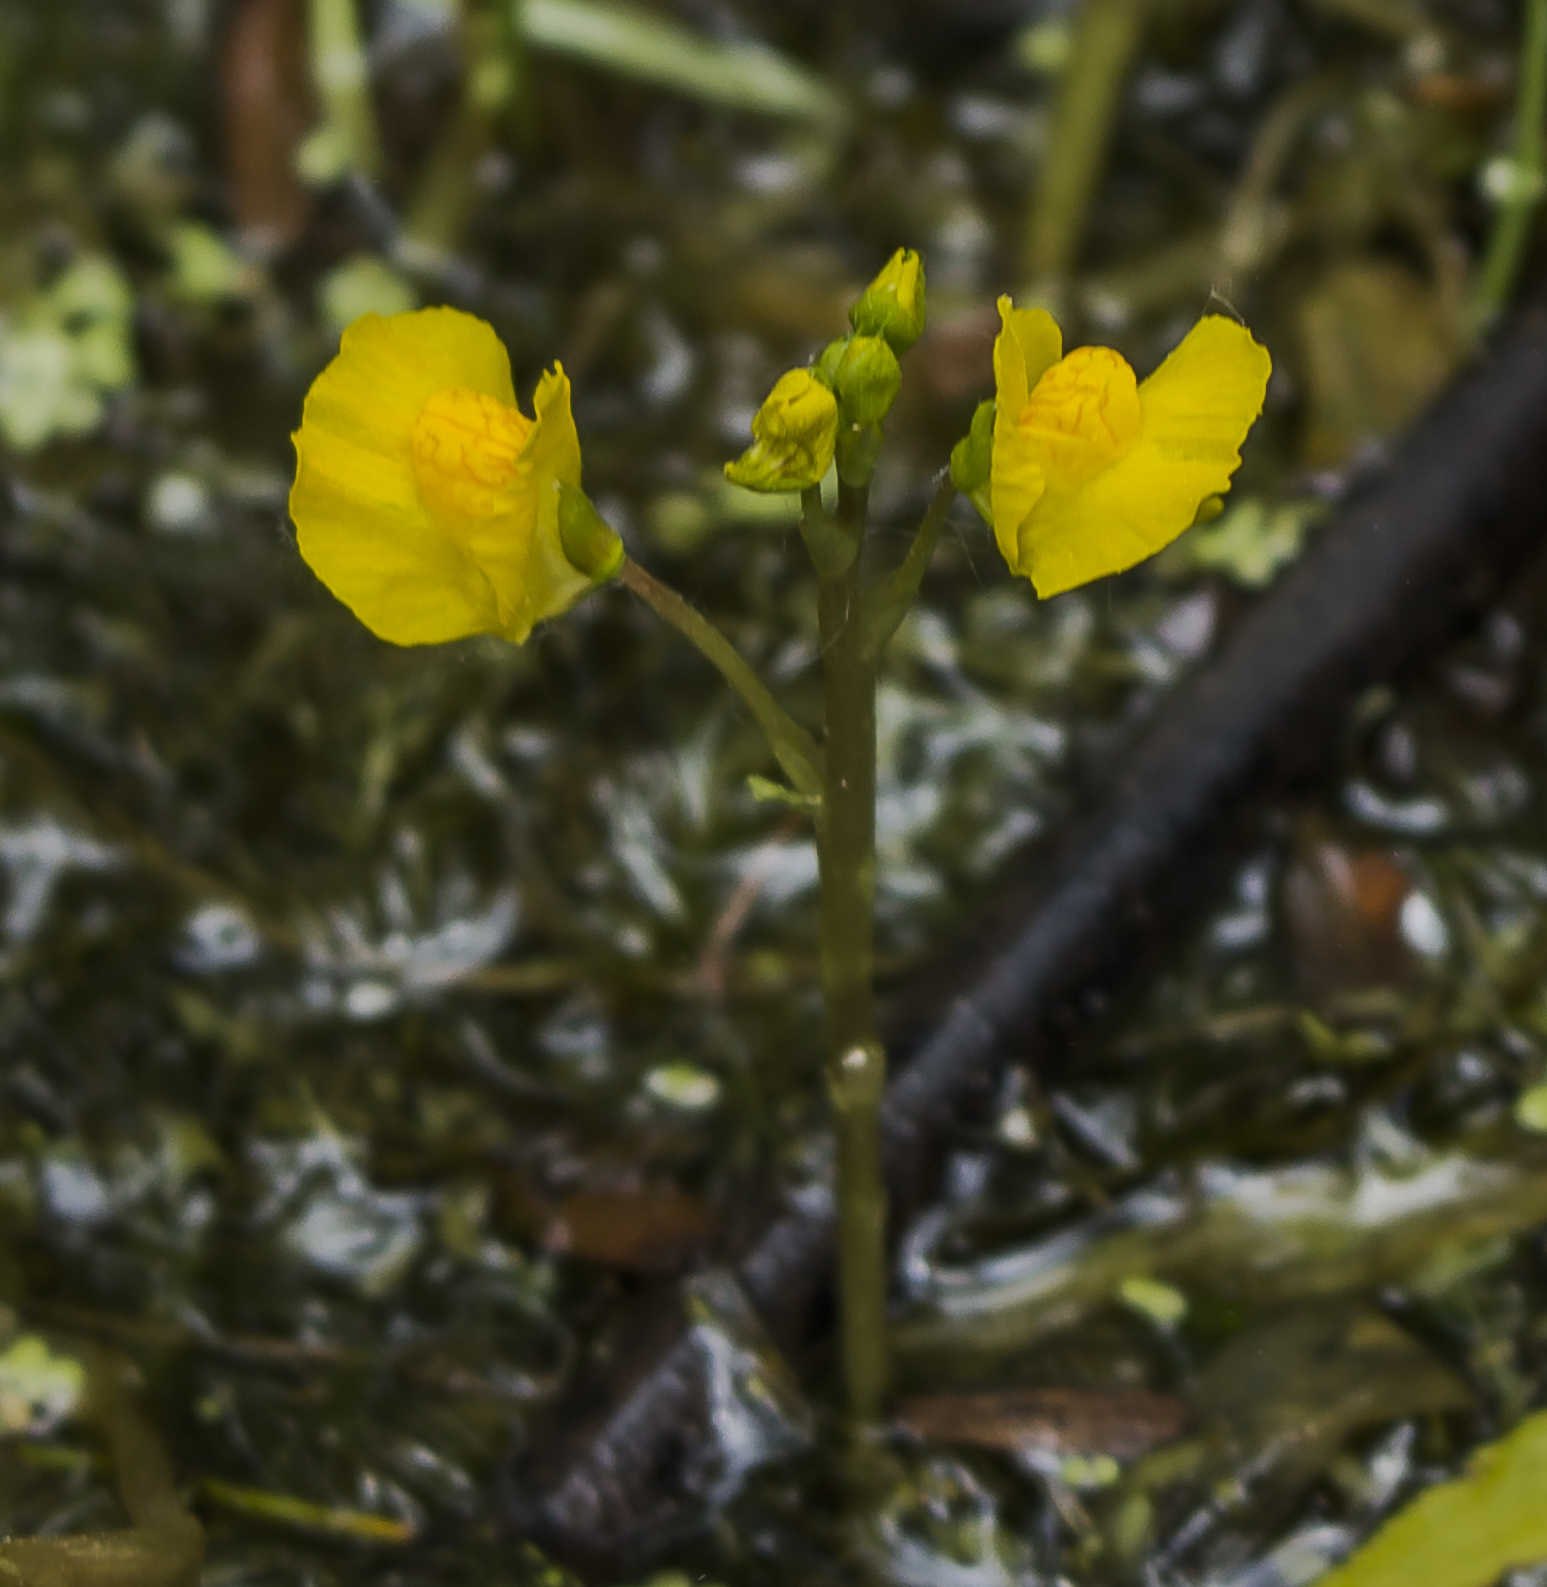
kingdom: Plantae
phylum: Tracheophyta
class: Magnoliopsida
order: Lamiales
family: Lentibulariaceae
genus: Utricularia
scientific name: Utricularia macrorhiza
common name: Common bladderwort
